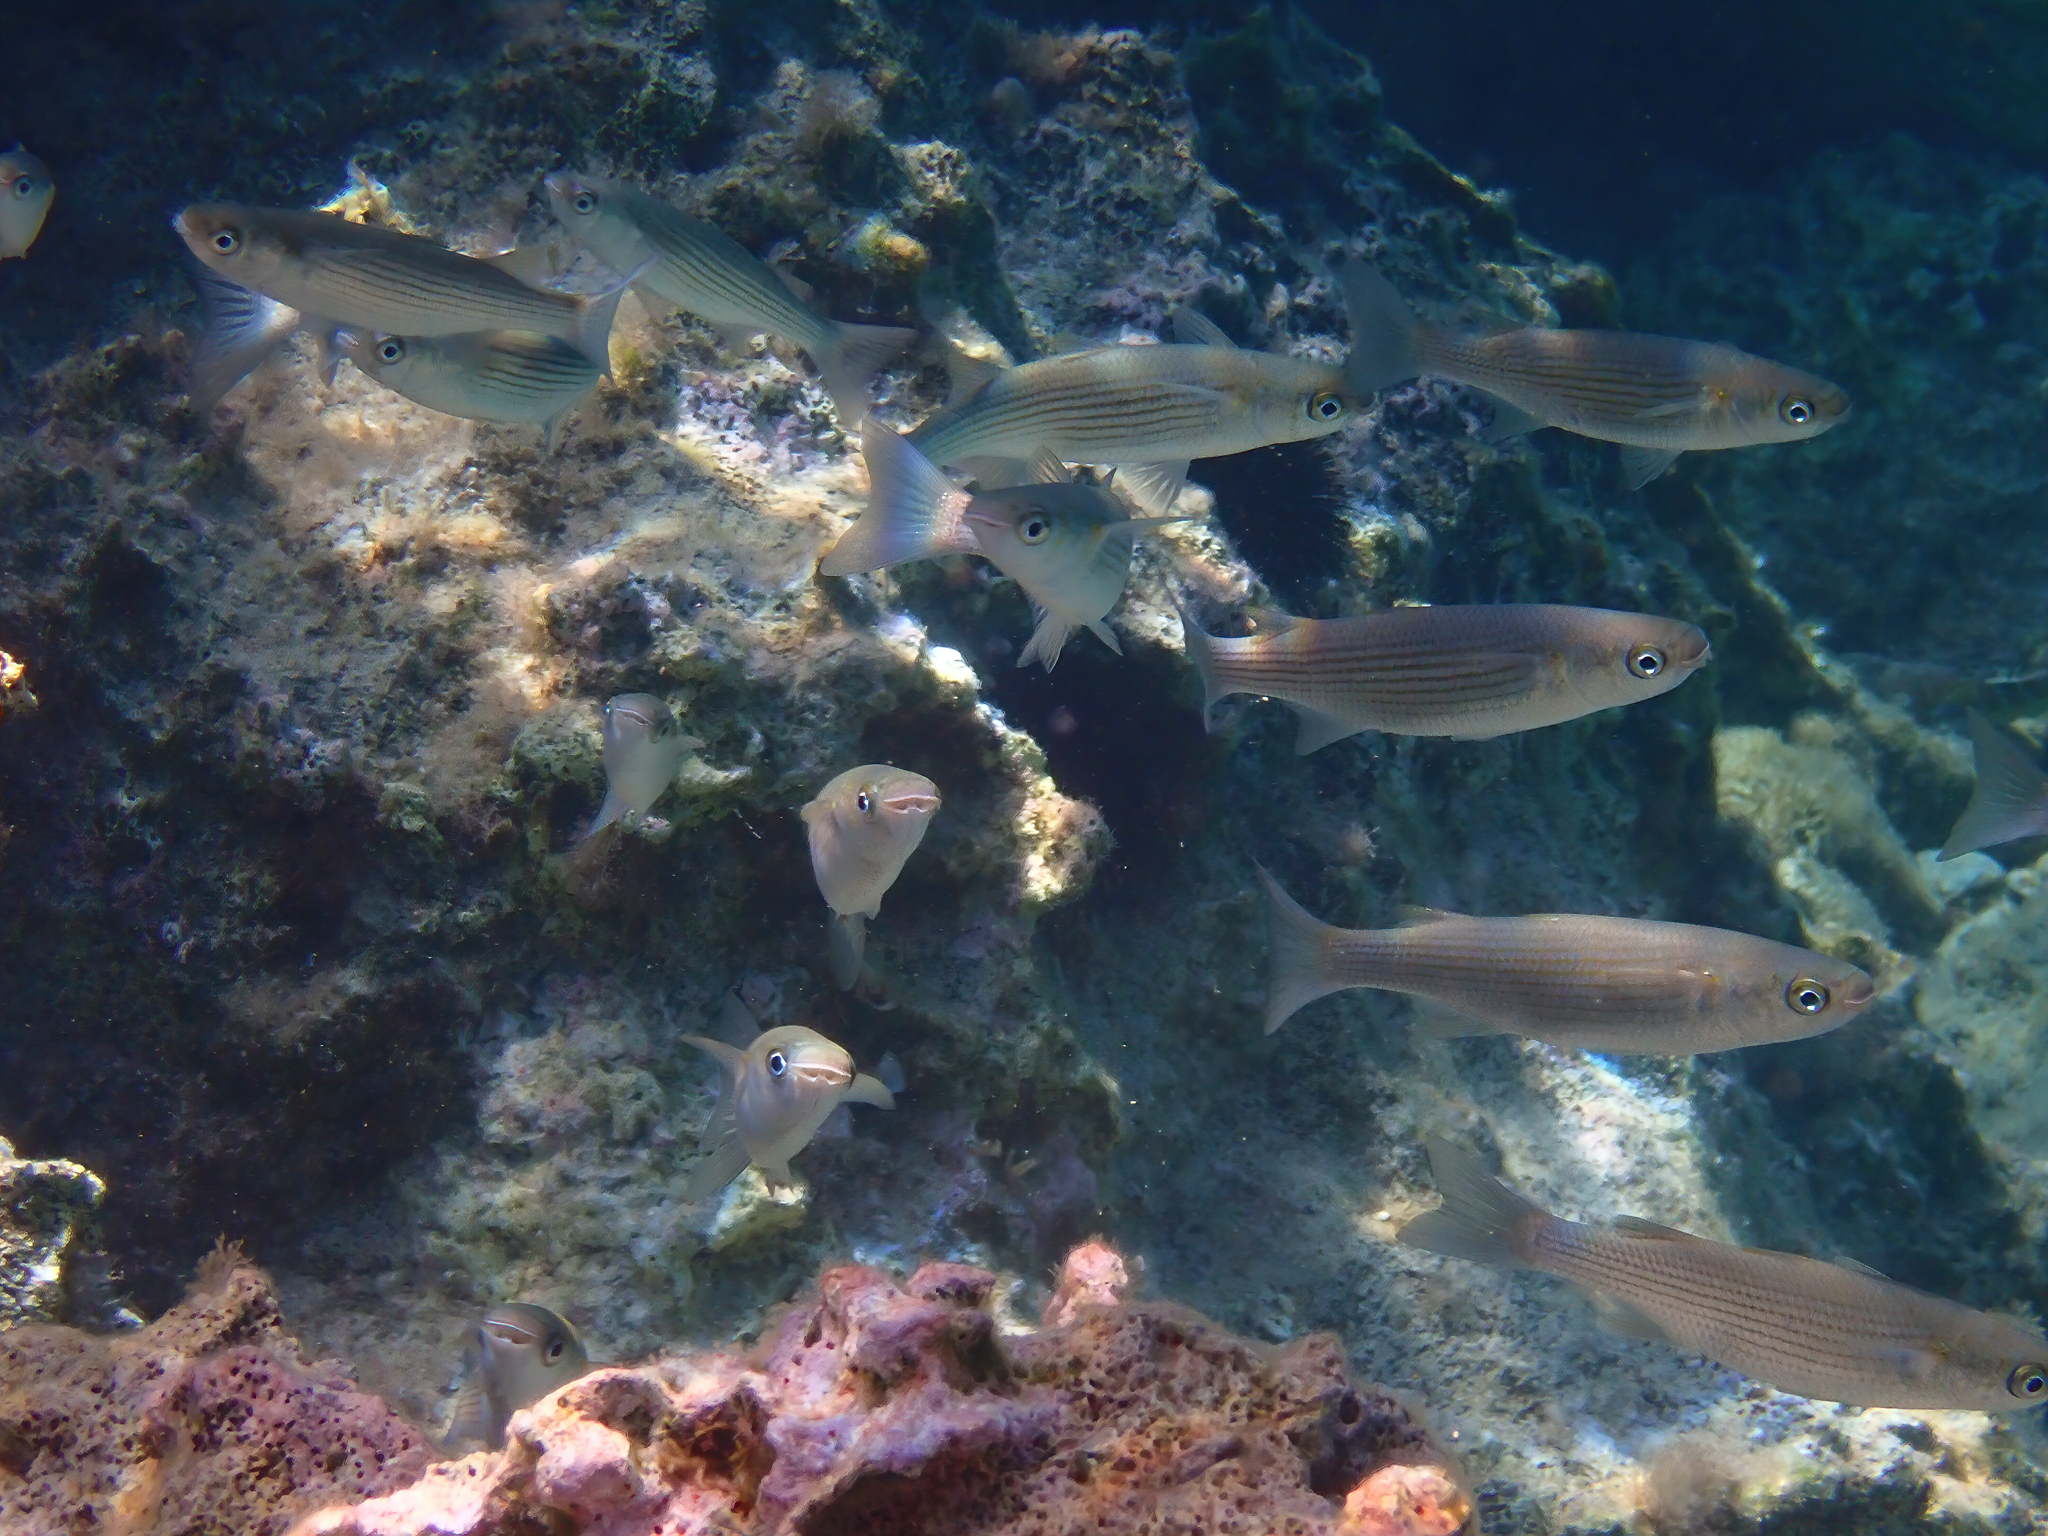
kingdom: Animalia
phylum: Chordata
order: Mugiliformes
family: Mugilidae
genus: Oedalechilus
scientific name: Oedalechilus labeo
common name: Boxlip mullet
